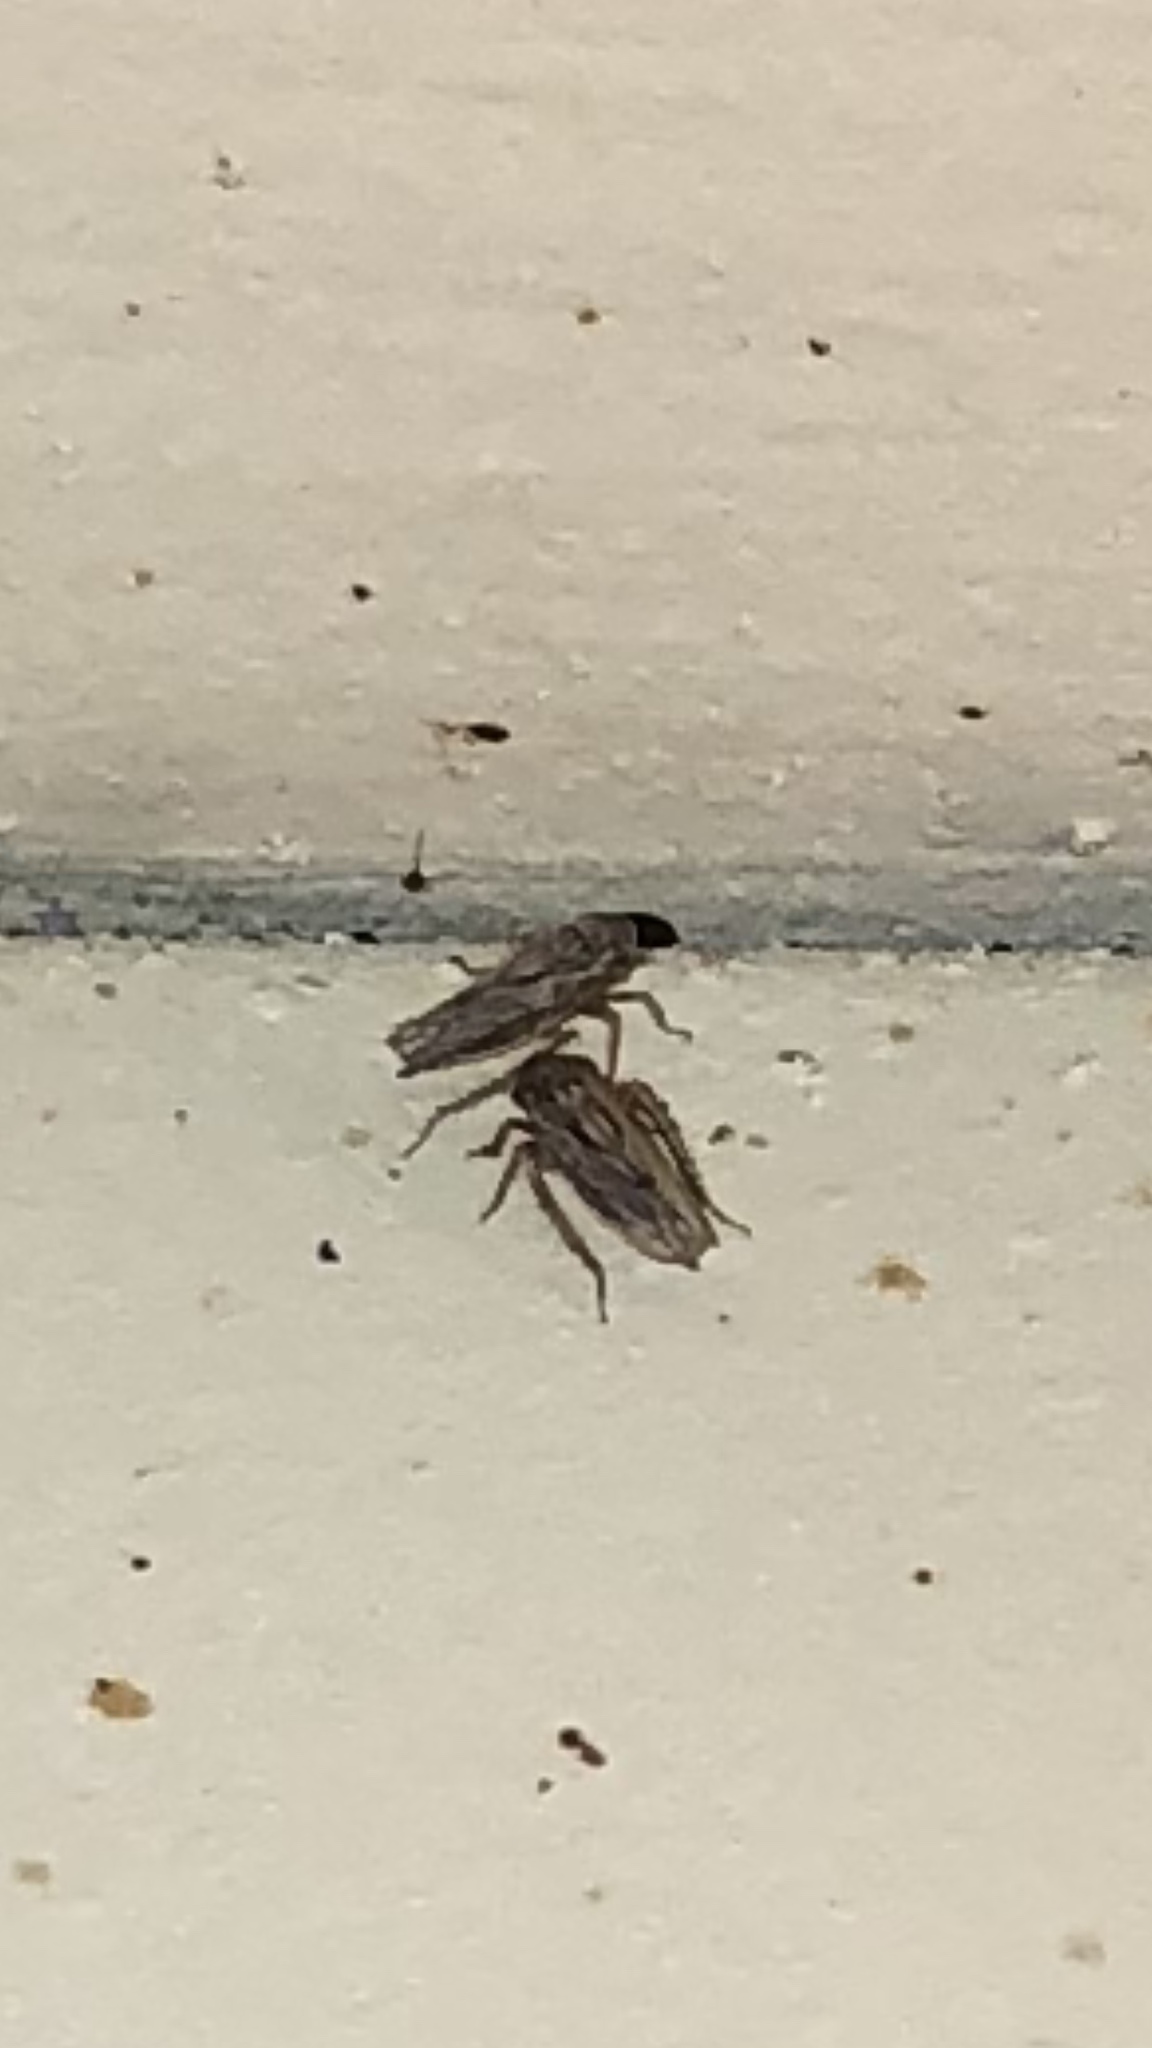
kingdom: Animalia
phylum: Arthropoda
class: Insecta
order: Hemiptera
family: Cicadellidae
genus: Exitianus
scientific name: Exitianus exitiosus
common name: Gray lawn leafhopper
